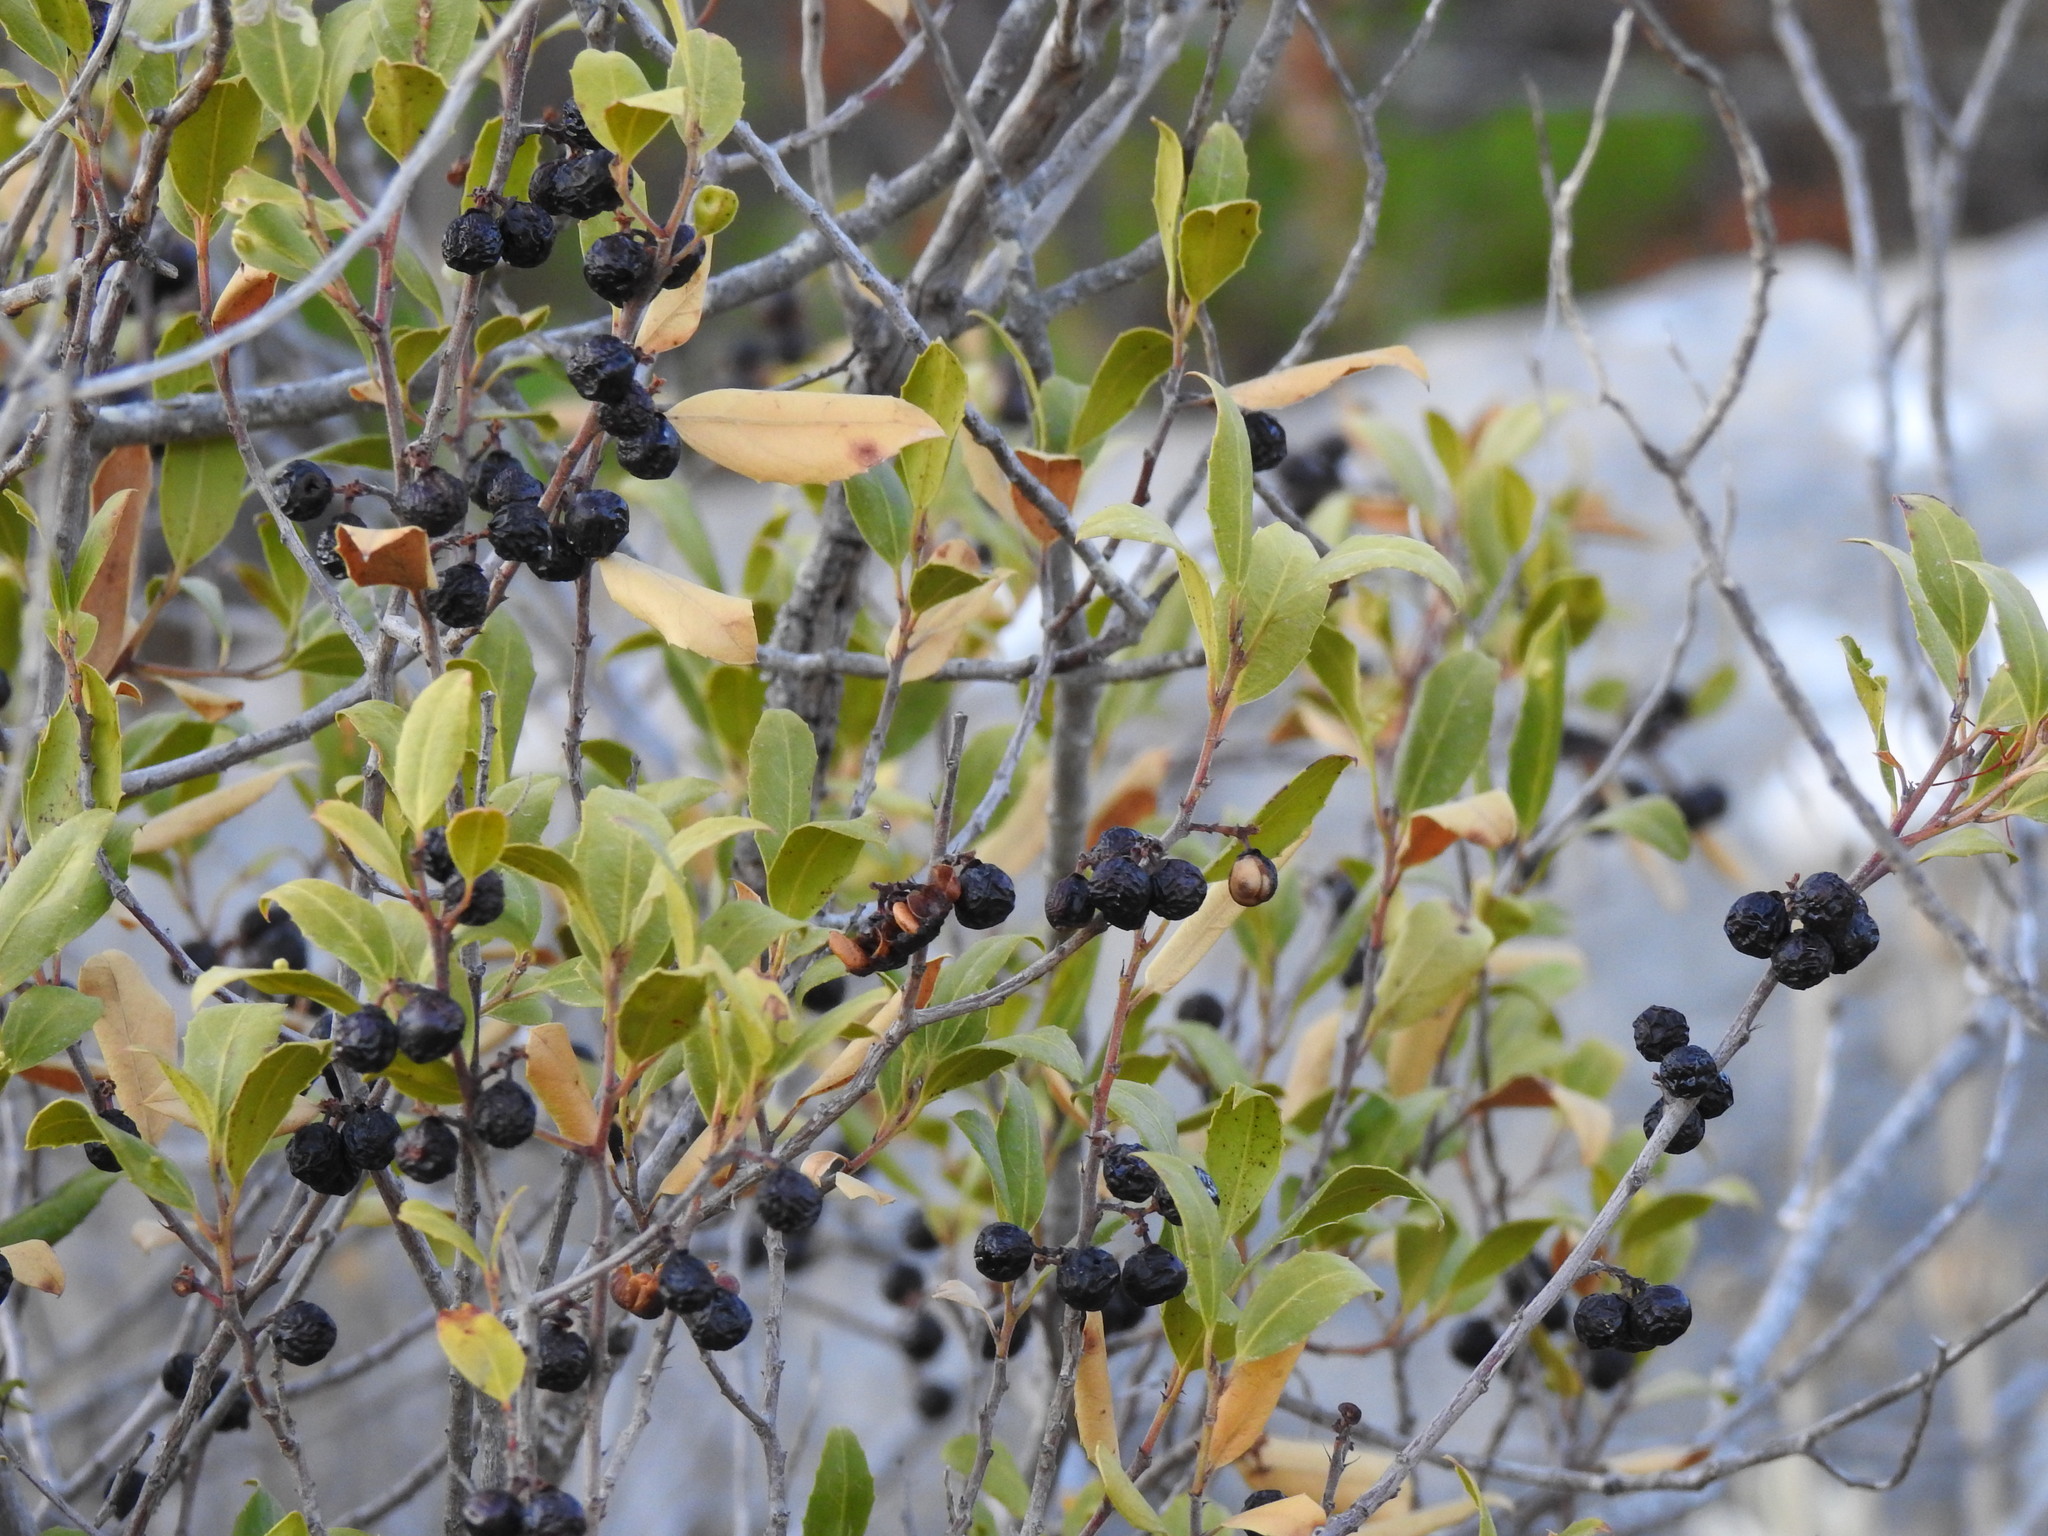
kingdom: Plantae
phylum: Tracheophyta
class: Magnoliopsida
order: Rosales
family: Rhamnaceae
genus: Rhamnus
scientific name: Rhamnus alaternus
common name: Mediterranean buckthorn
